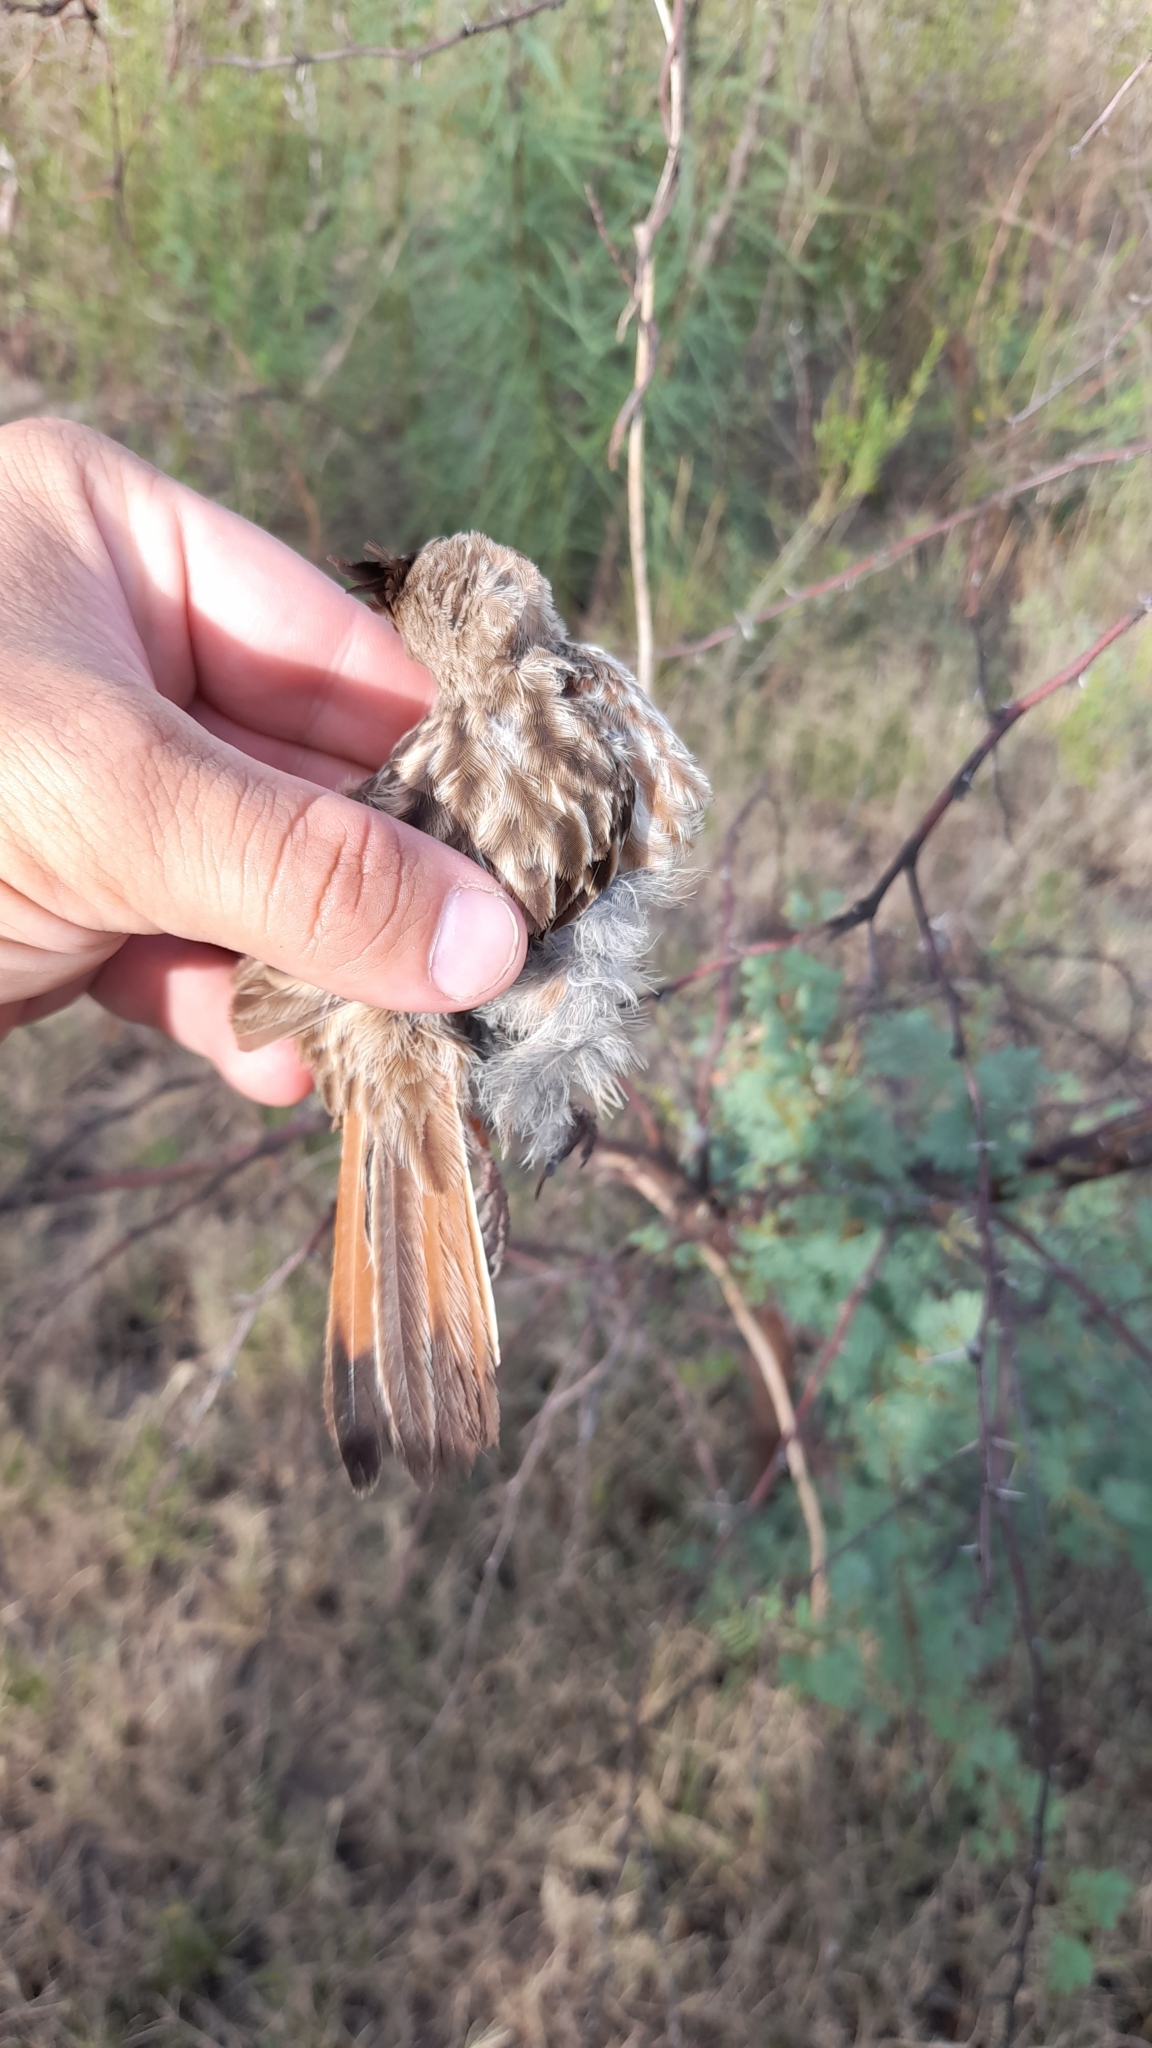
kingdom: Animalia
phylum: Chordata
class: Aves
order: Passeriformes
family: Furnariidae
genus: Coryphistera
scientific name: Coryphistera alaudina
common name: Lark-like brushrunner
